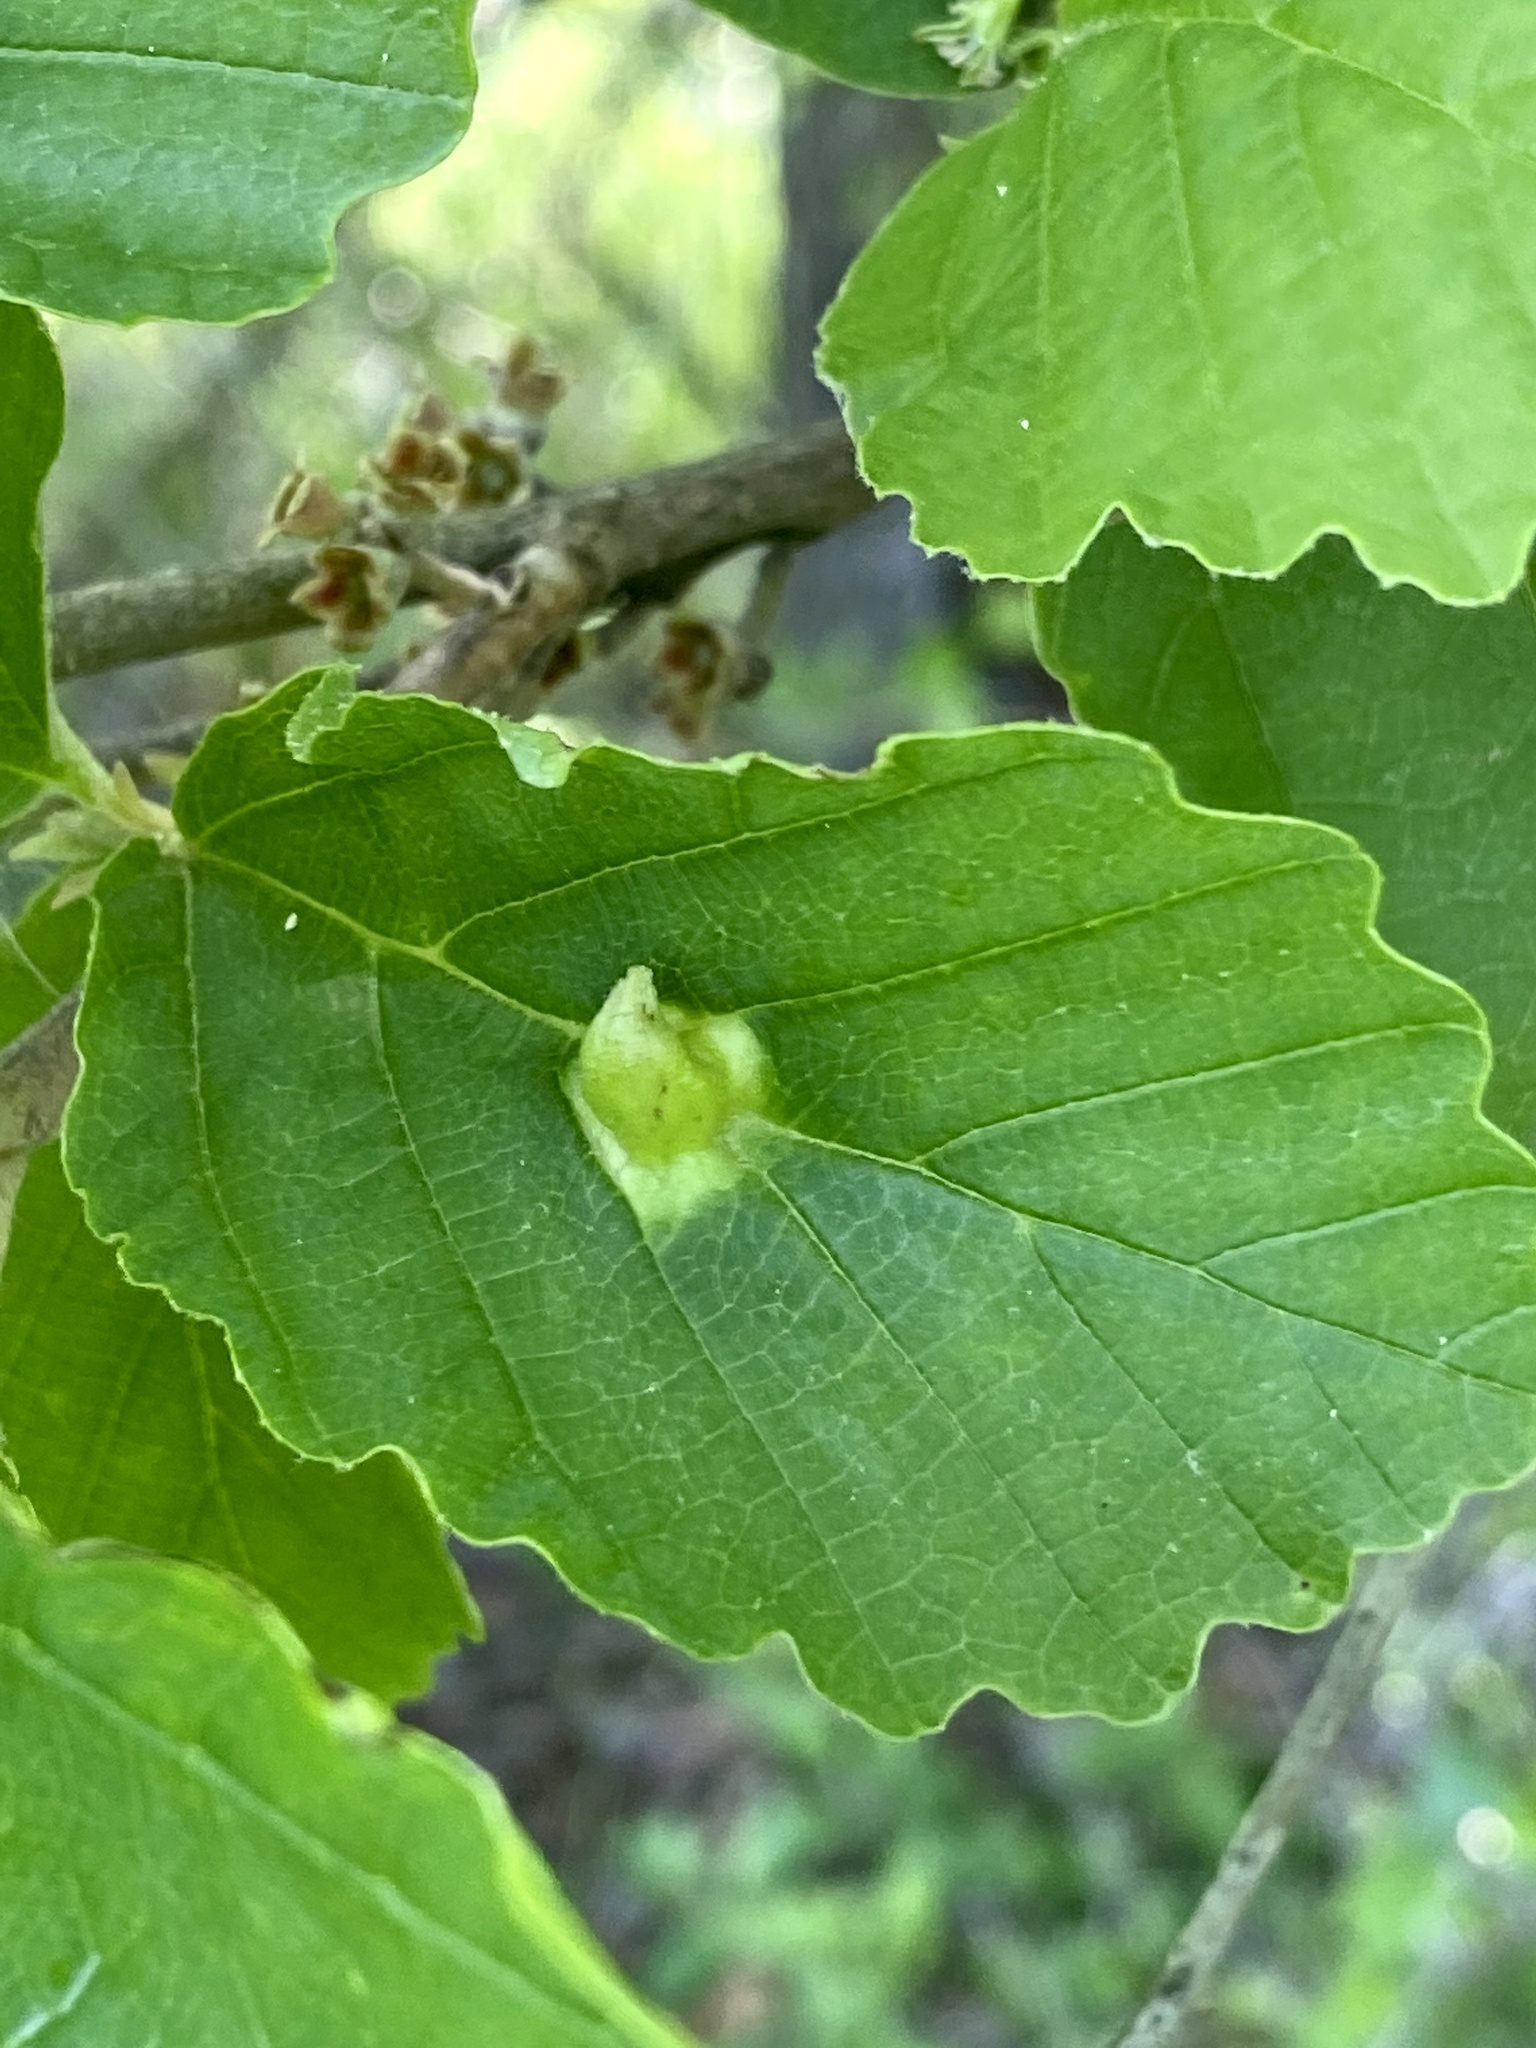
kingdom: Animalia
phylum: Arthropoda
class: Insecta
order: Hemiptera
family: Aphididae
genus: Hormaphis
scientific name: Hormaphis hamamelidis
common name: Witch-hazel cone gall aphid
